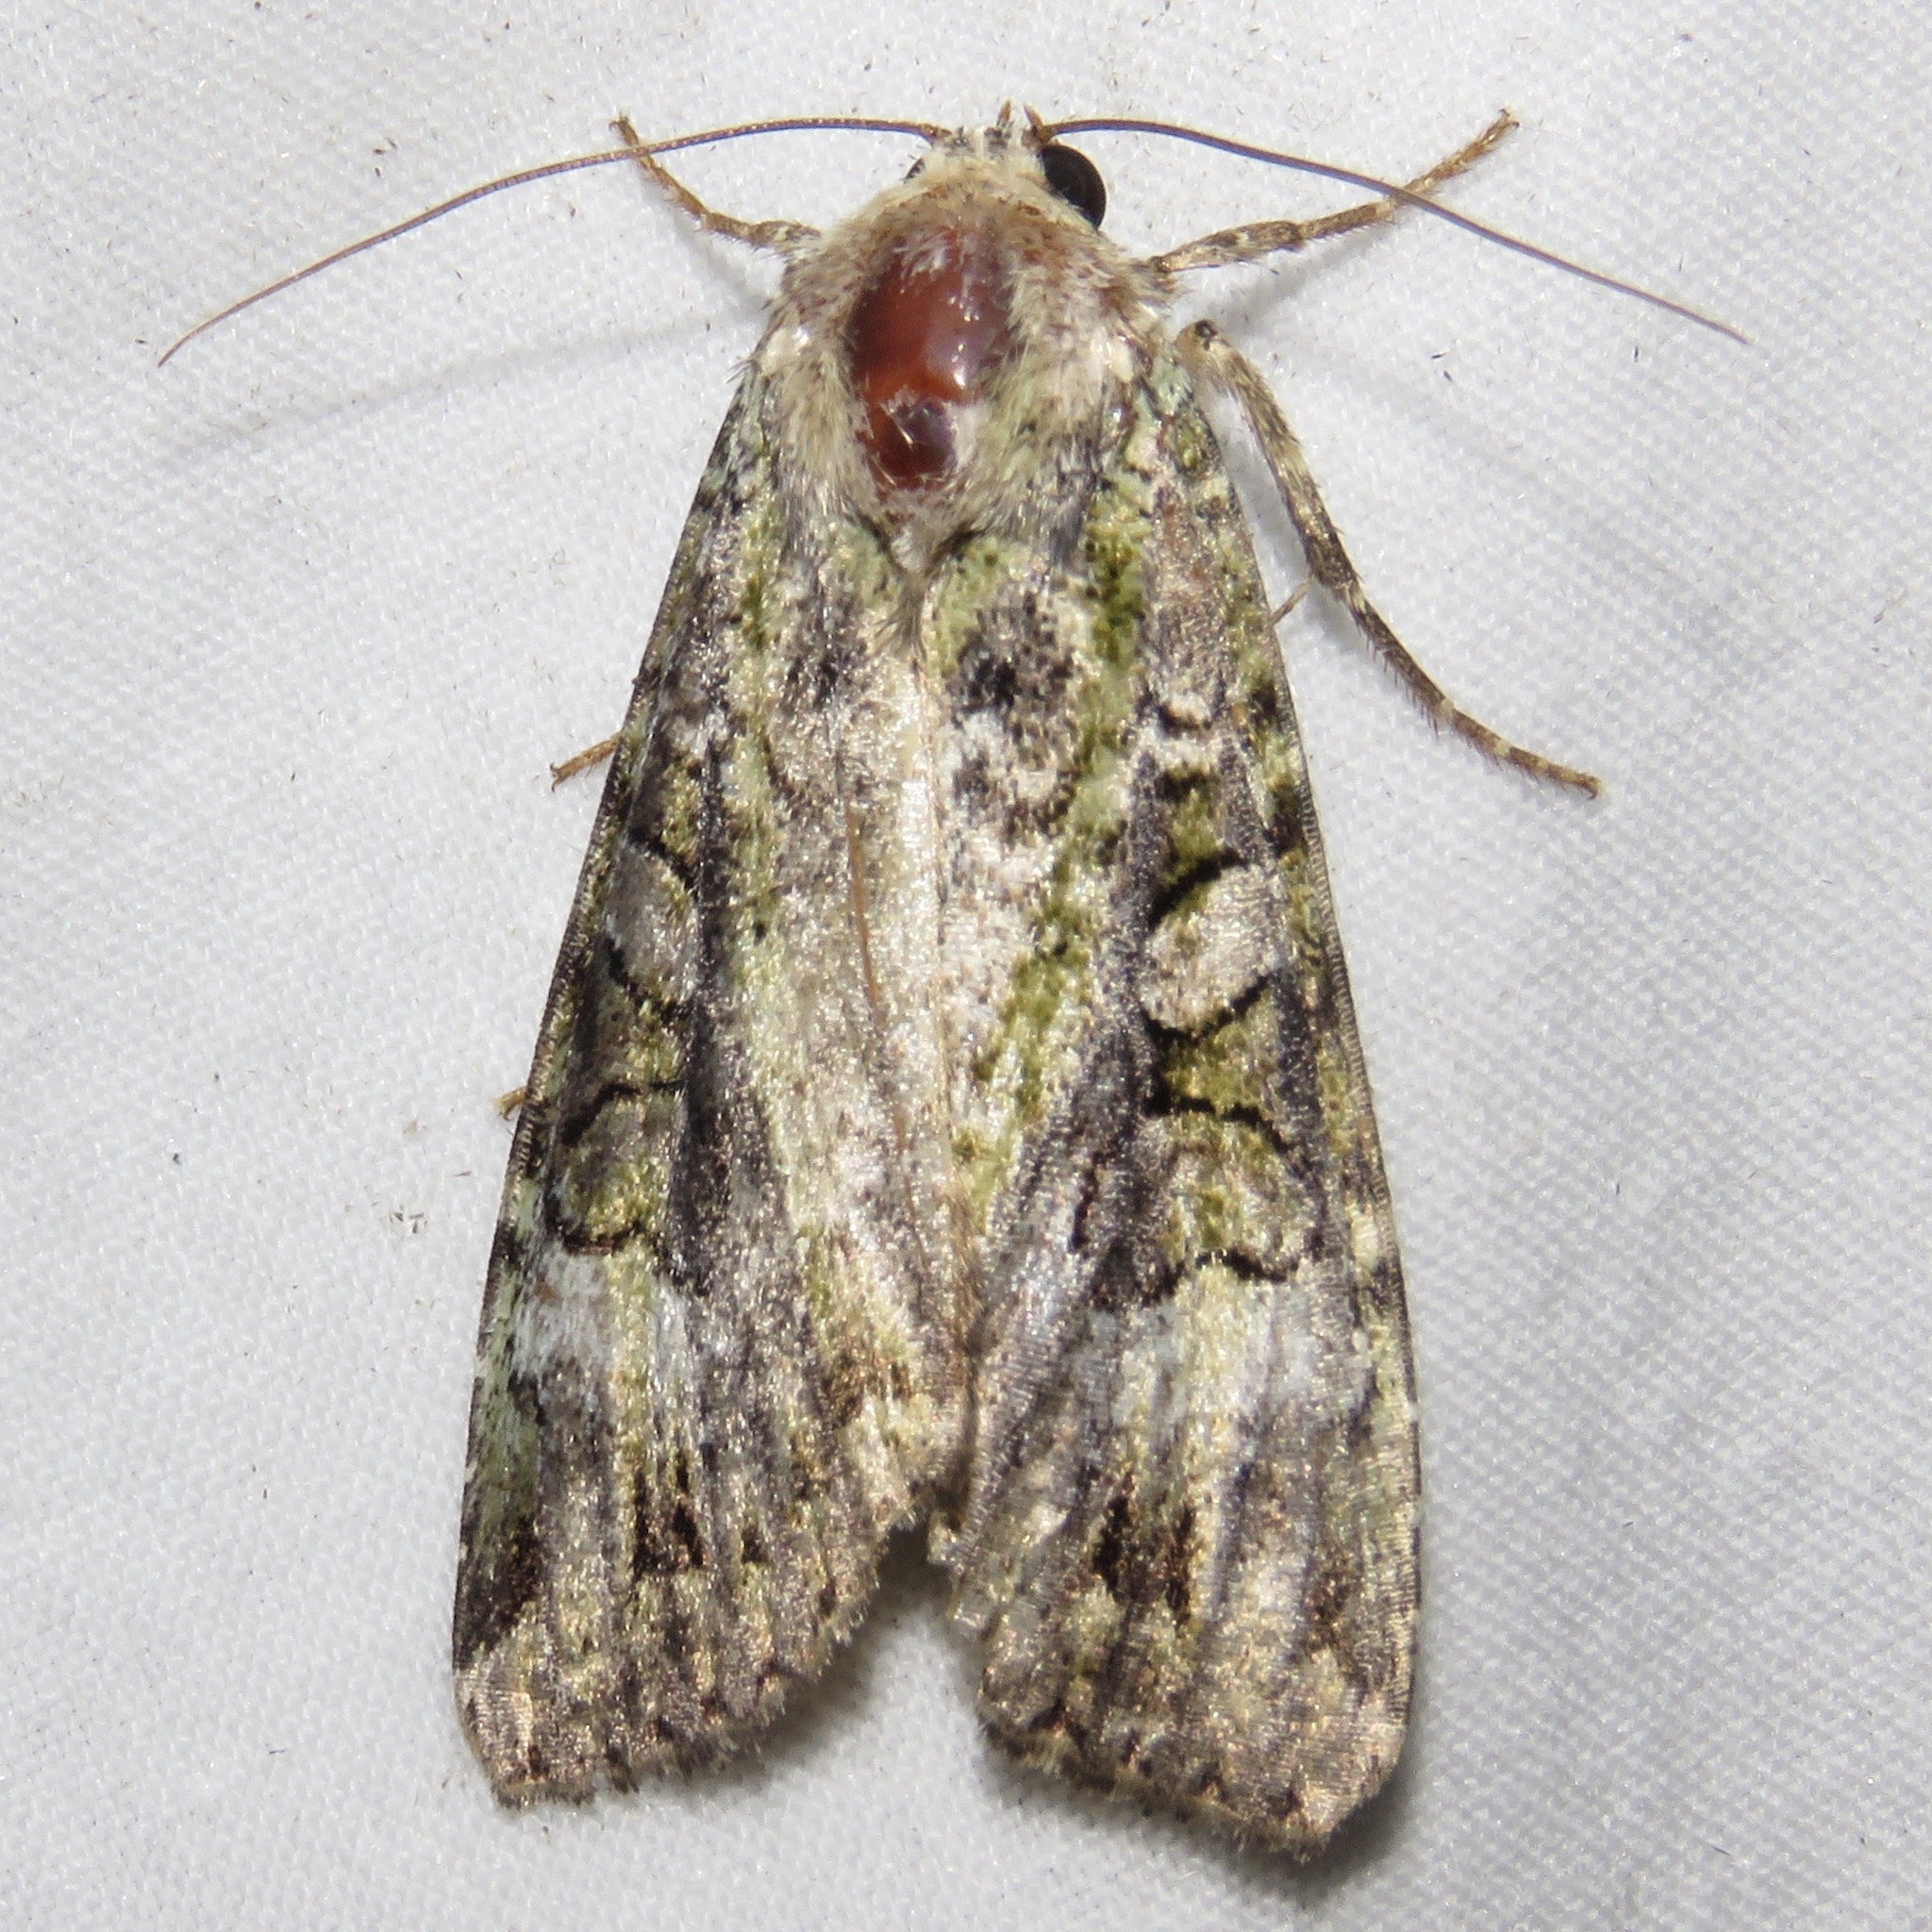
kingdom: Animalia
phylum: Arthropoda
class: Insecta
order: Lepidoptera
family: Noctuidae
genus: Anaplectoides
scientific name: Anaplectoides prasina
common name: Green arches
